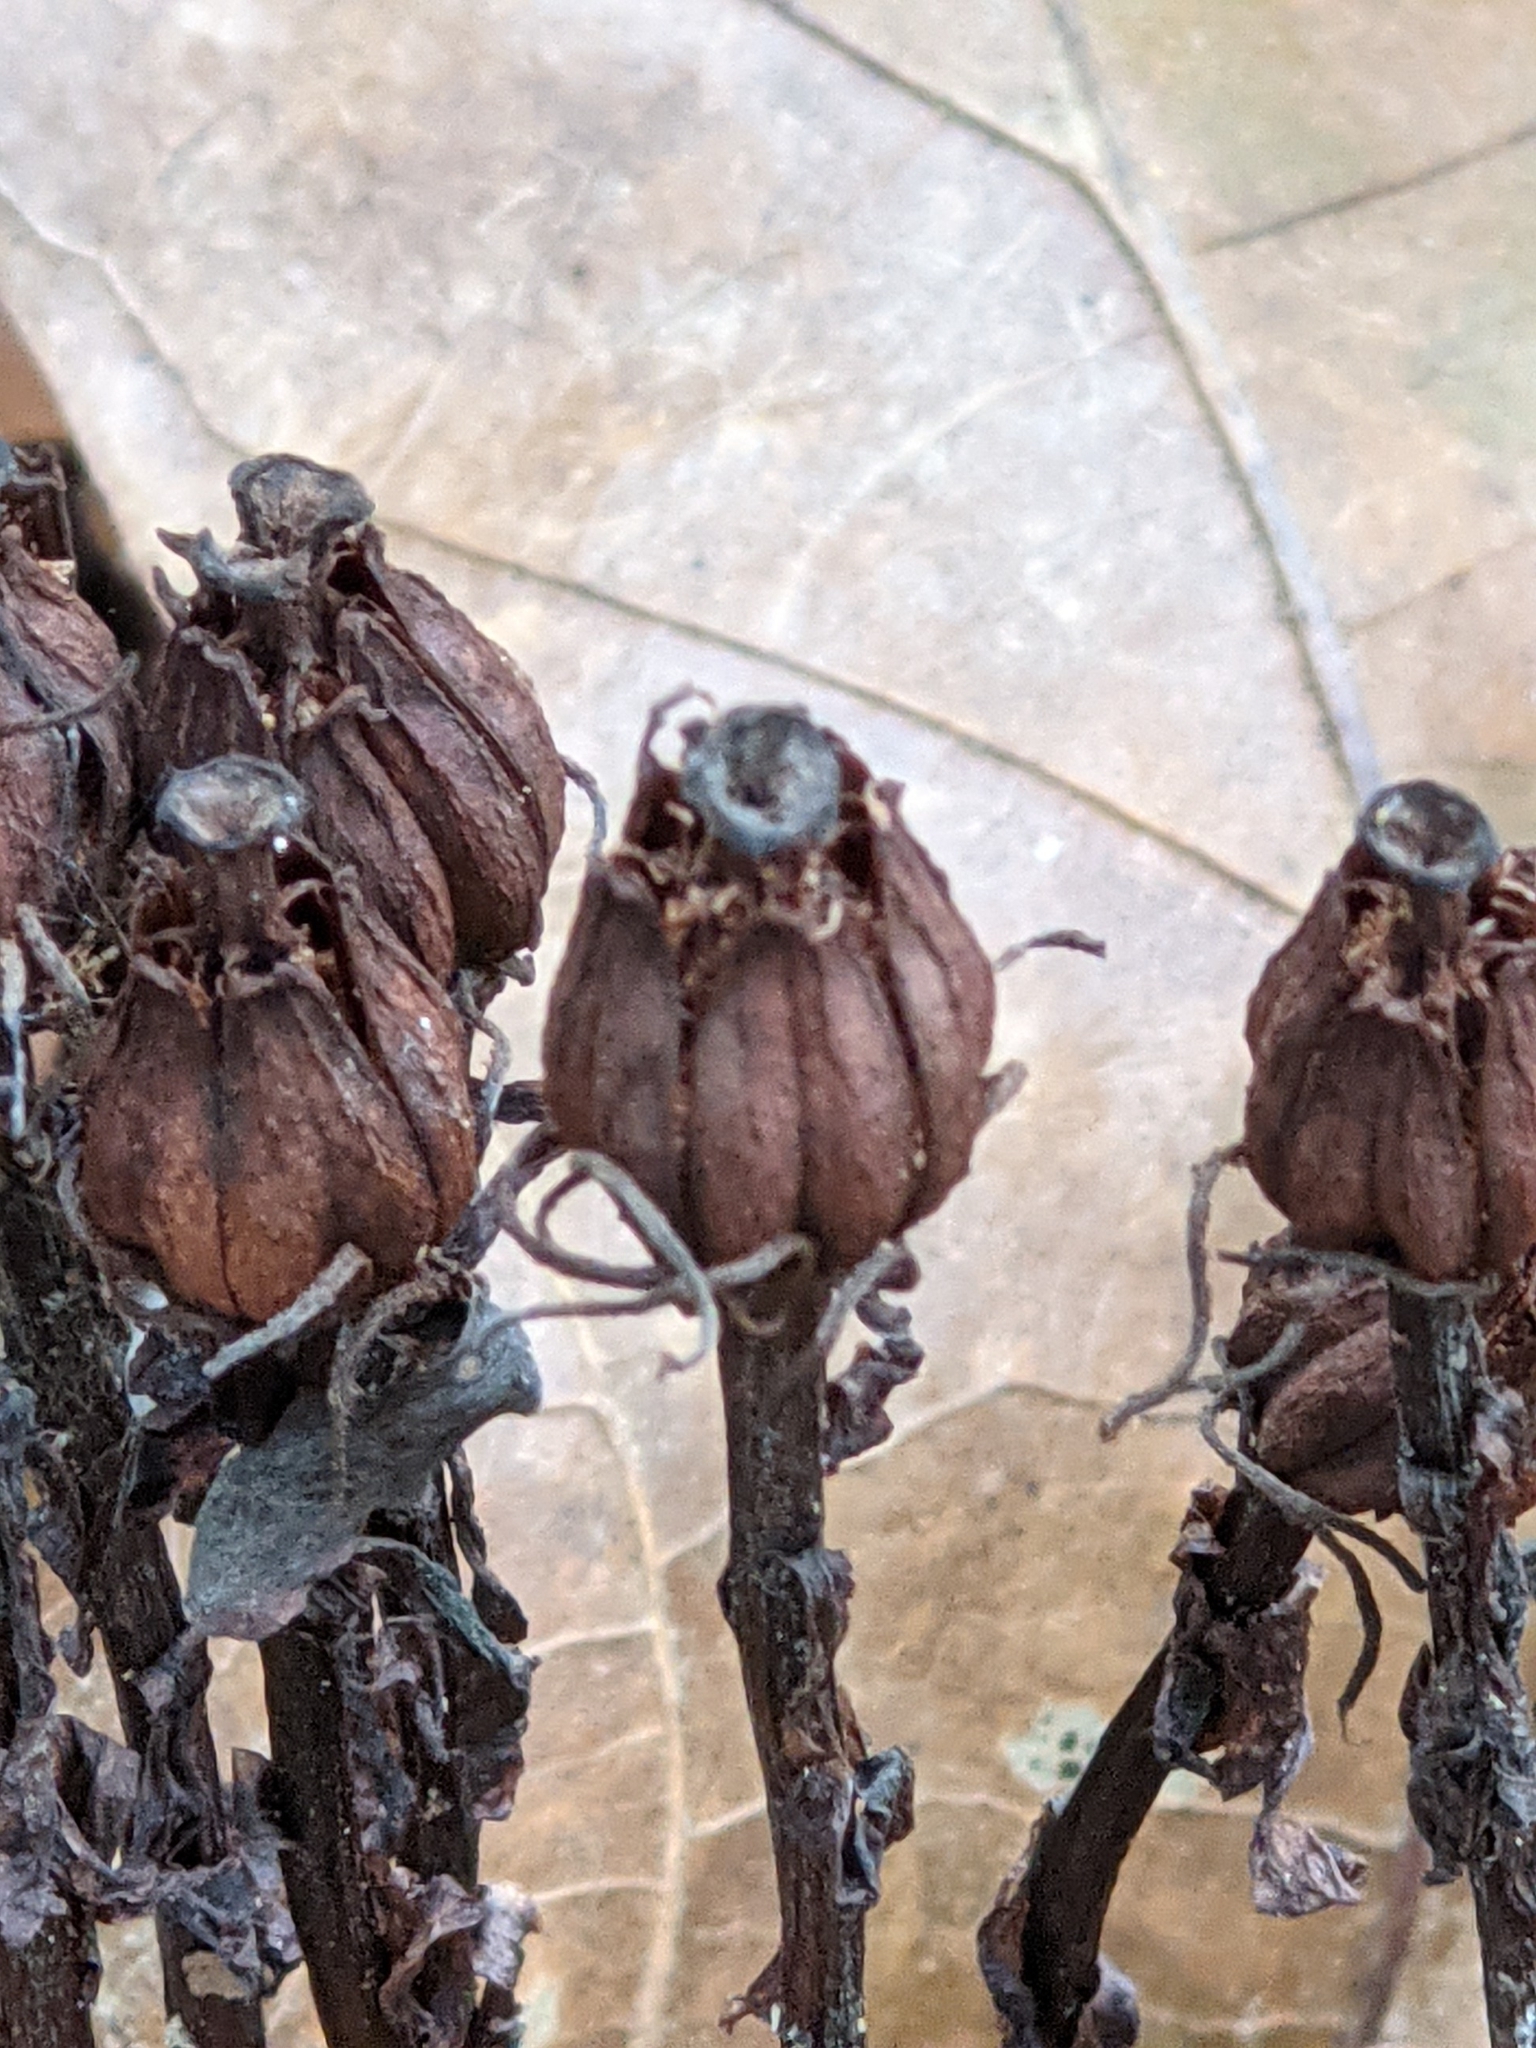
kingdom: Plantae
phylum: Tracheophyta
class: Magnoliopsida
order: Ericales
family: Ericaceae
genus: Monotropa
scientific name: Monotropa uniflora
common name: Convulsion root
